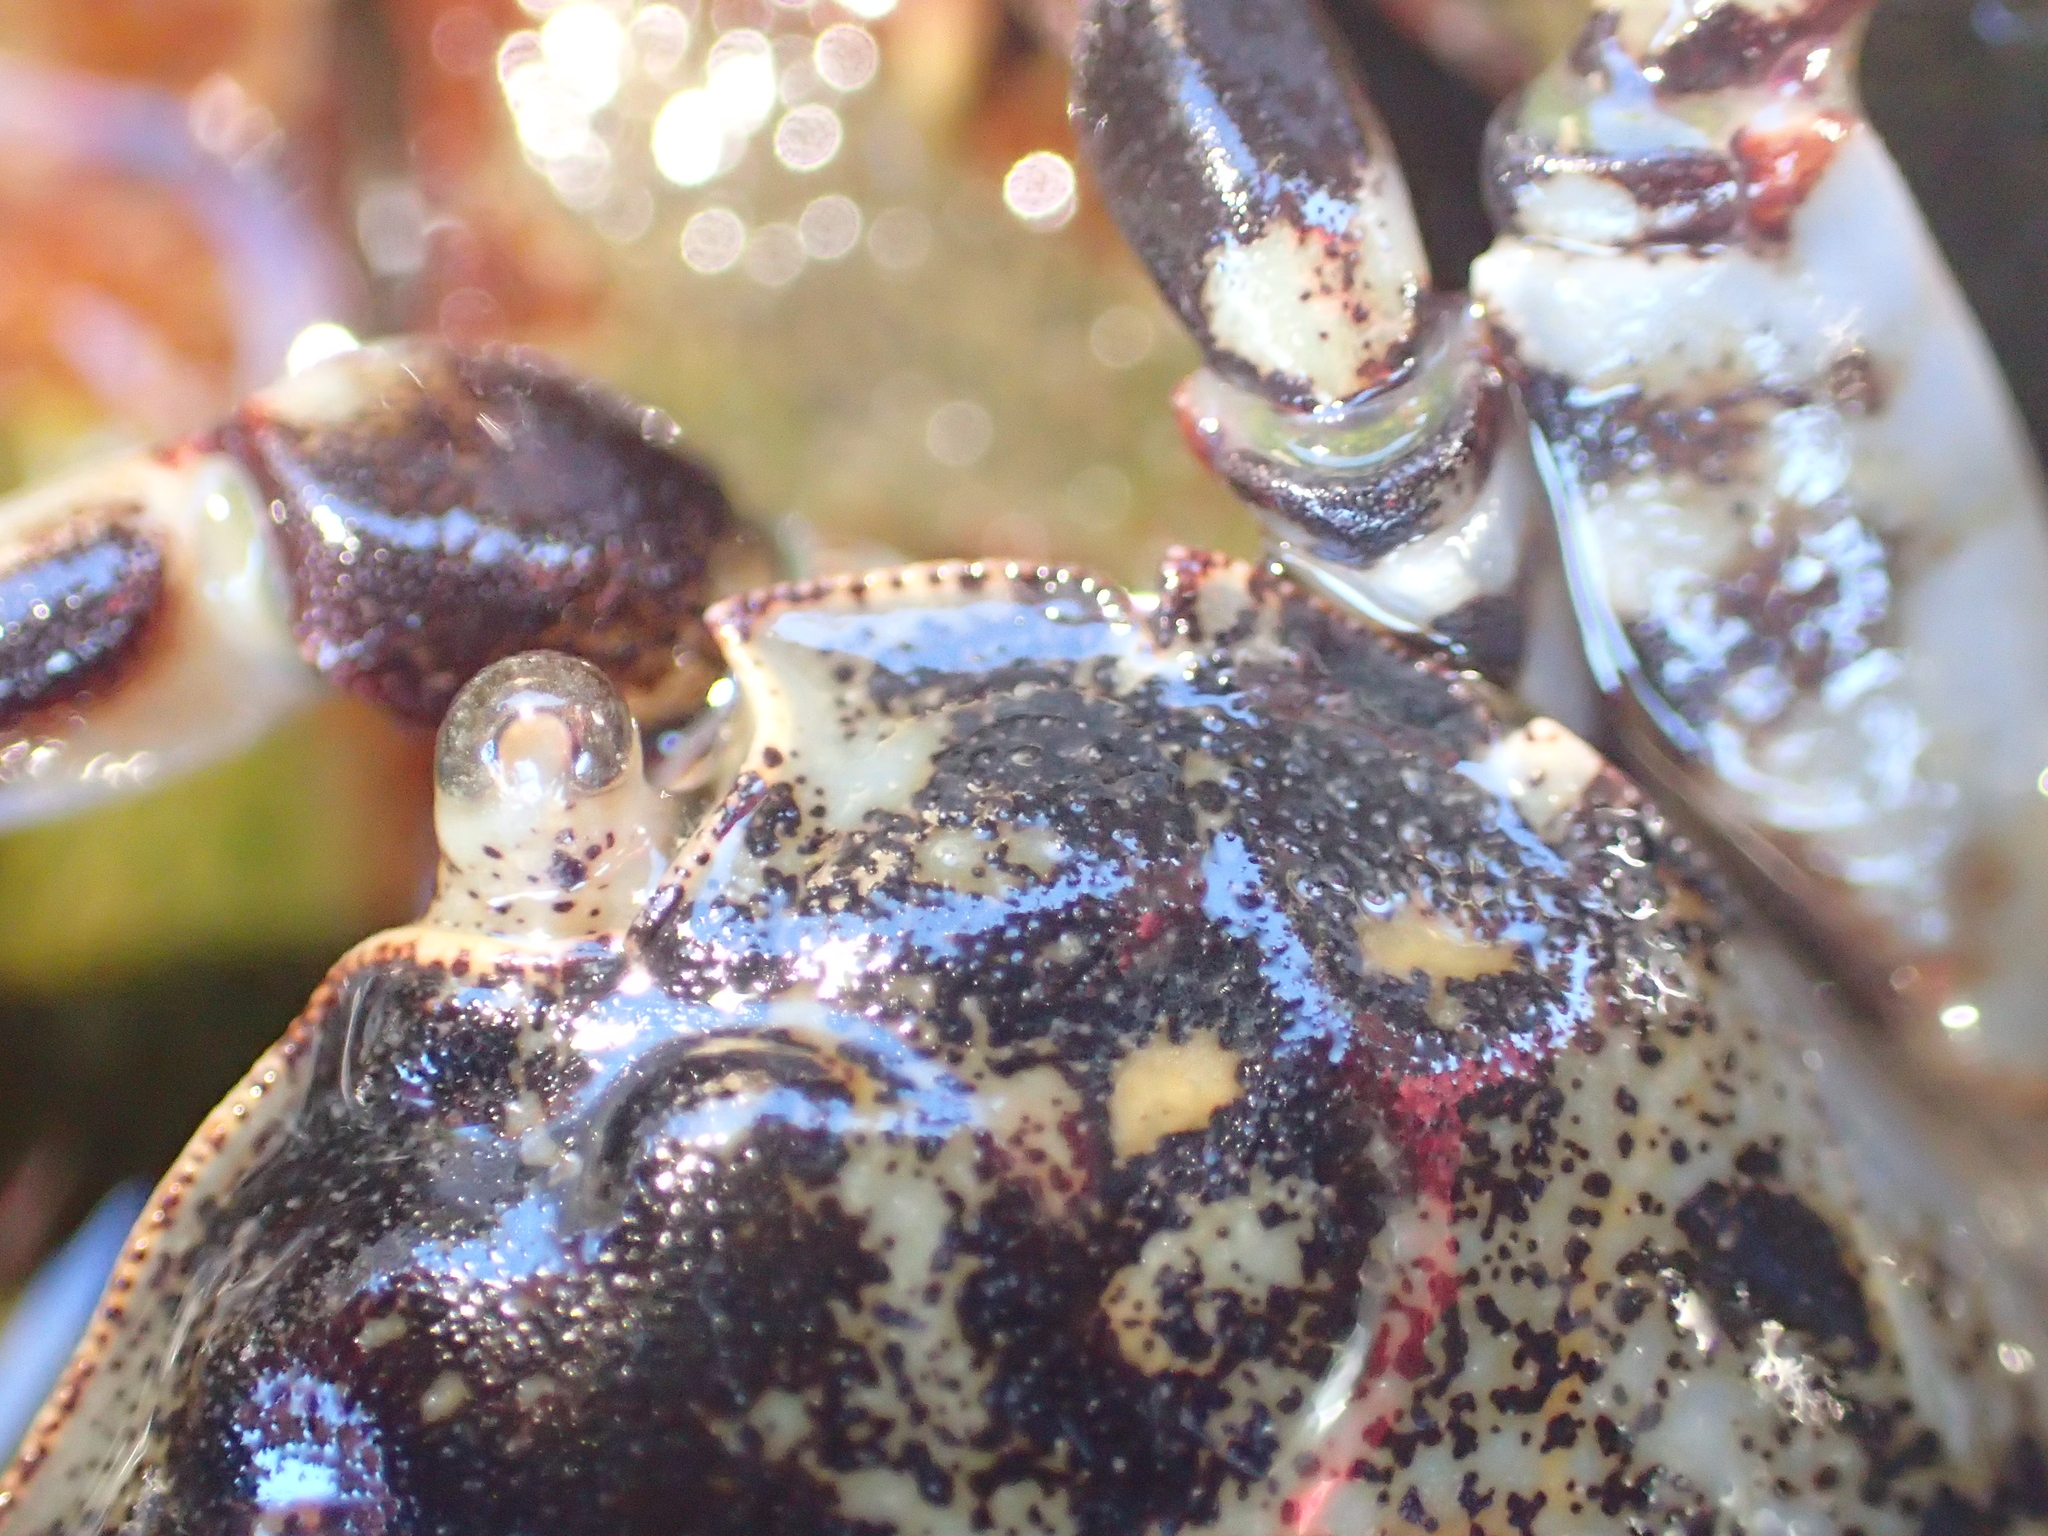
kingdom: Animalia
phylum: Arthropoda
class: Malacostraca
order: Decapoda
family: Varunidae
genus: Hemigrapsus
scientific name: Hemigrapsus sexdentatus
